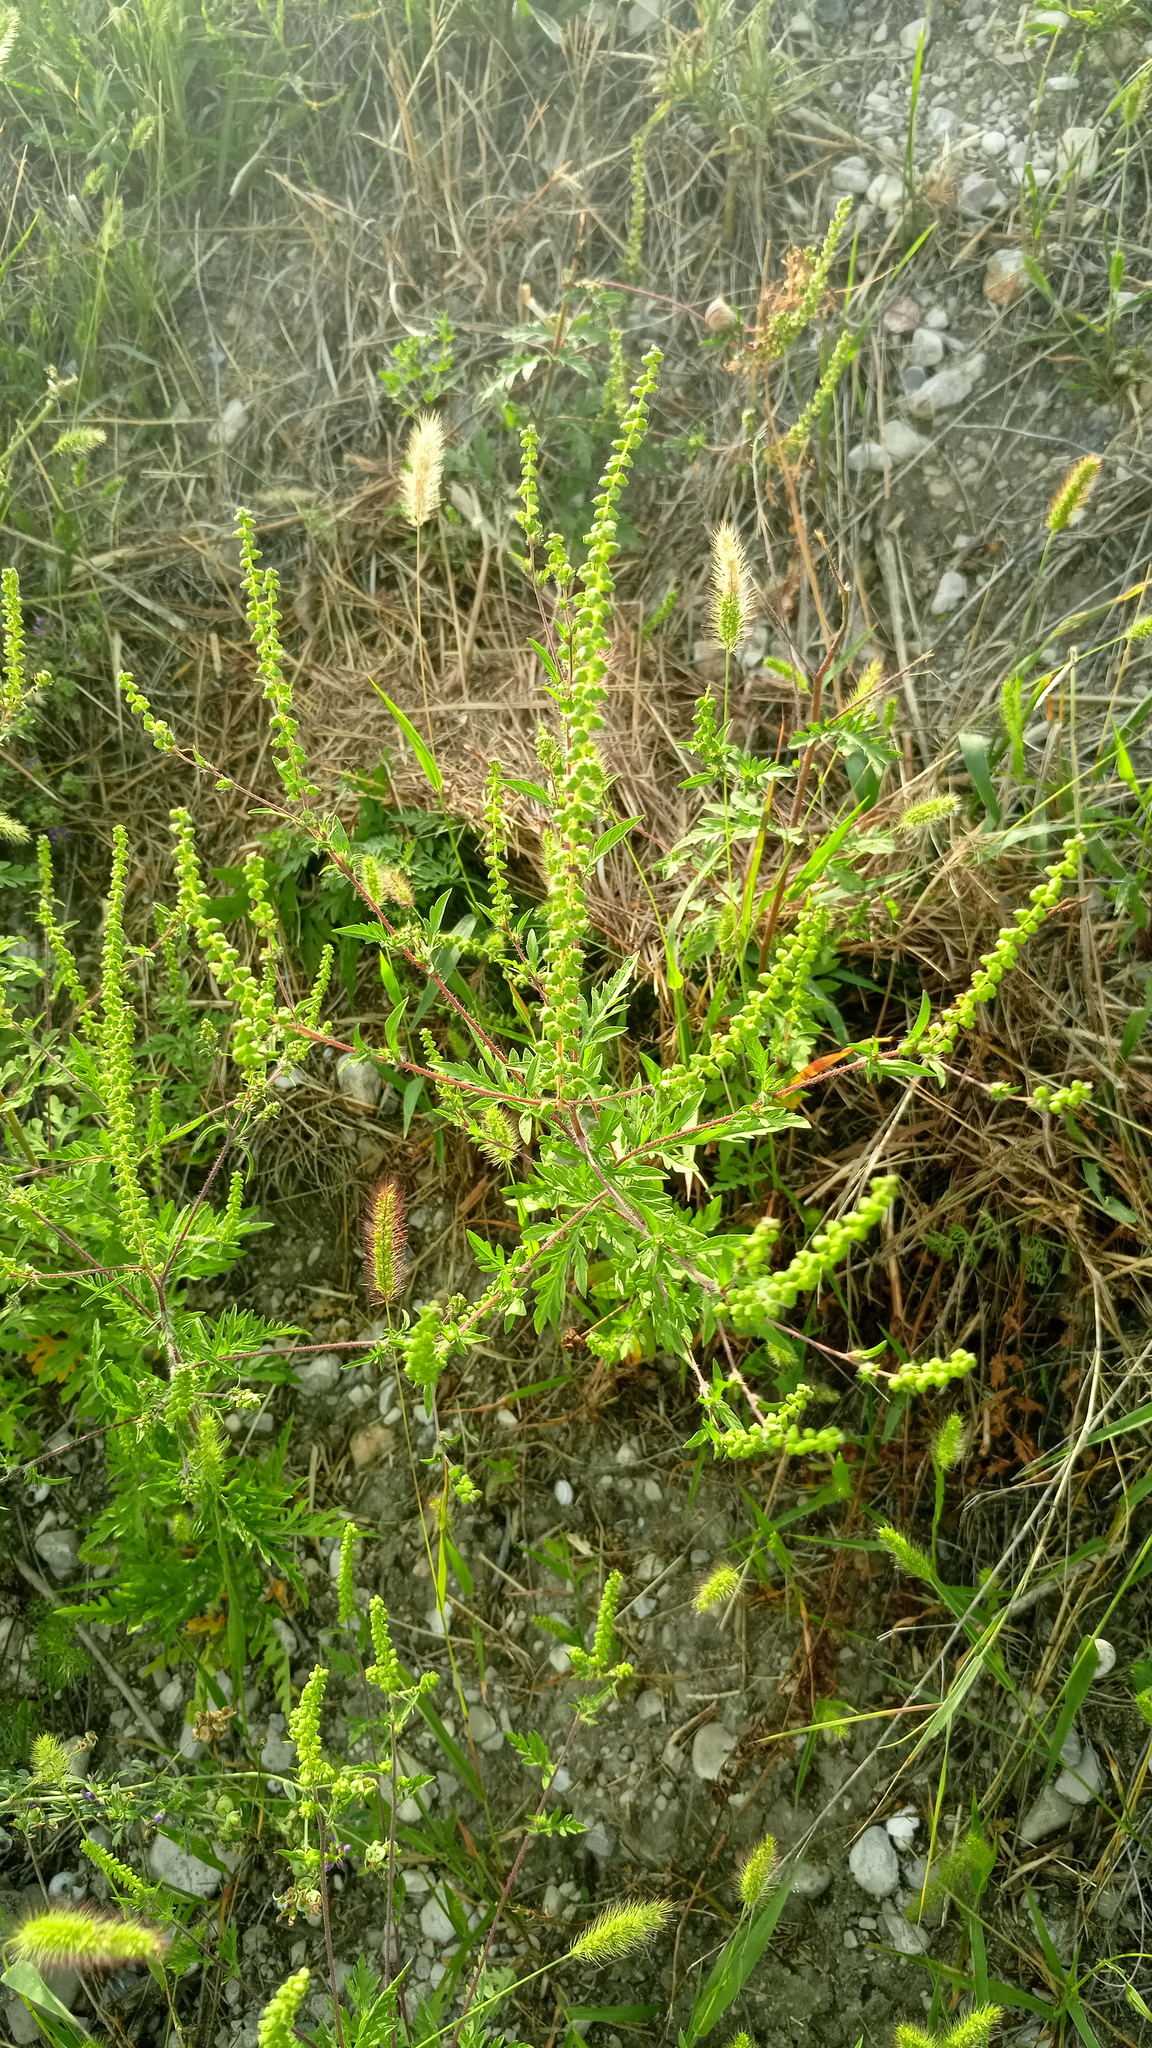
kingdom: Plantae
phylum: Tracheophyta
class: Magnoliopsida
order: Asterales
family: Asteraceae
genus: Ambrosia
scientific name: Ambrosia artemisiifolia
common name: Annual ragweed
